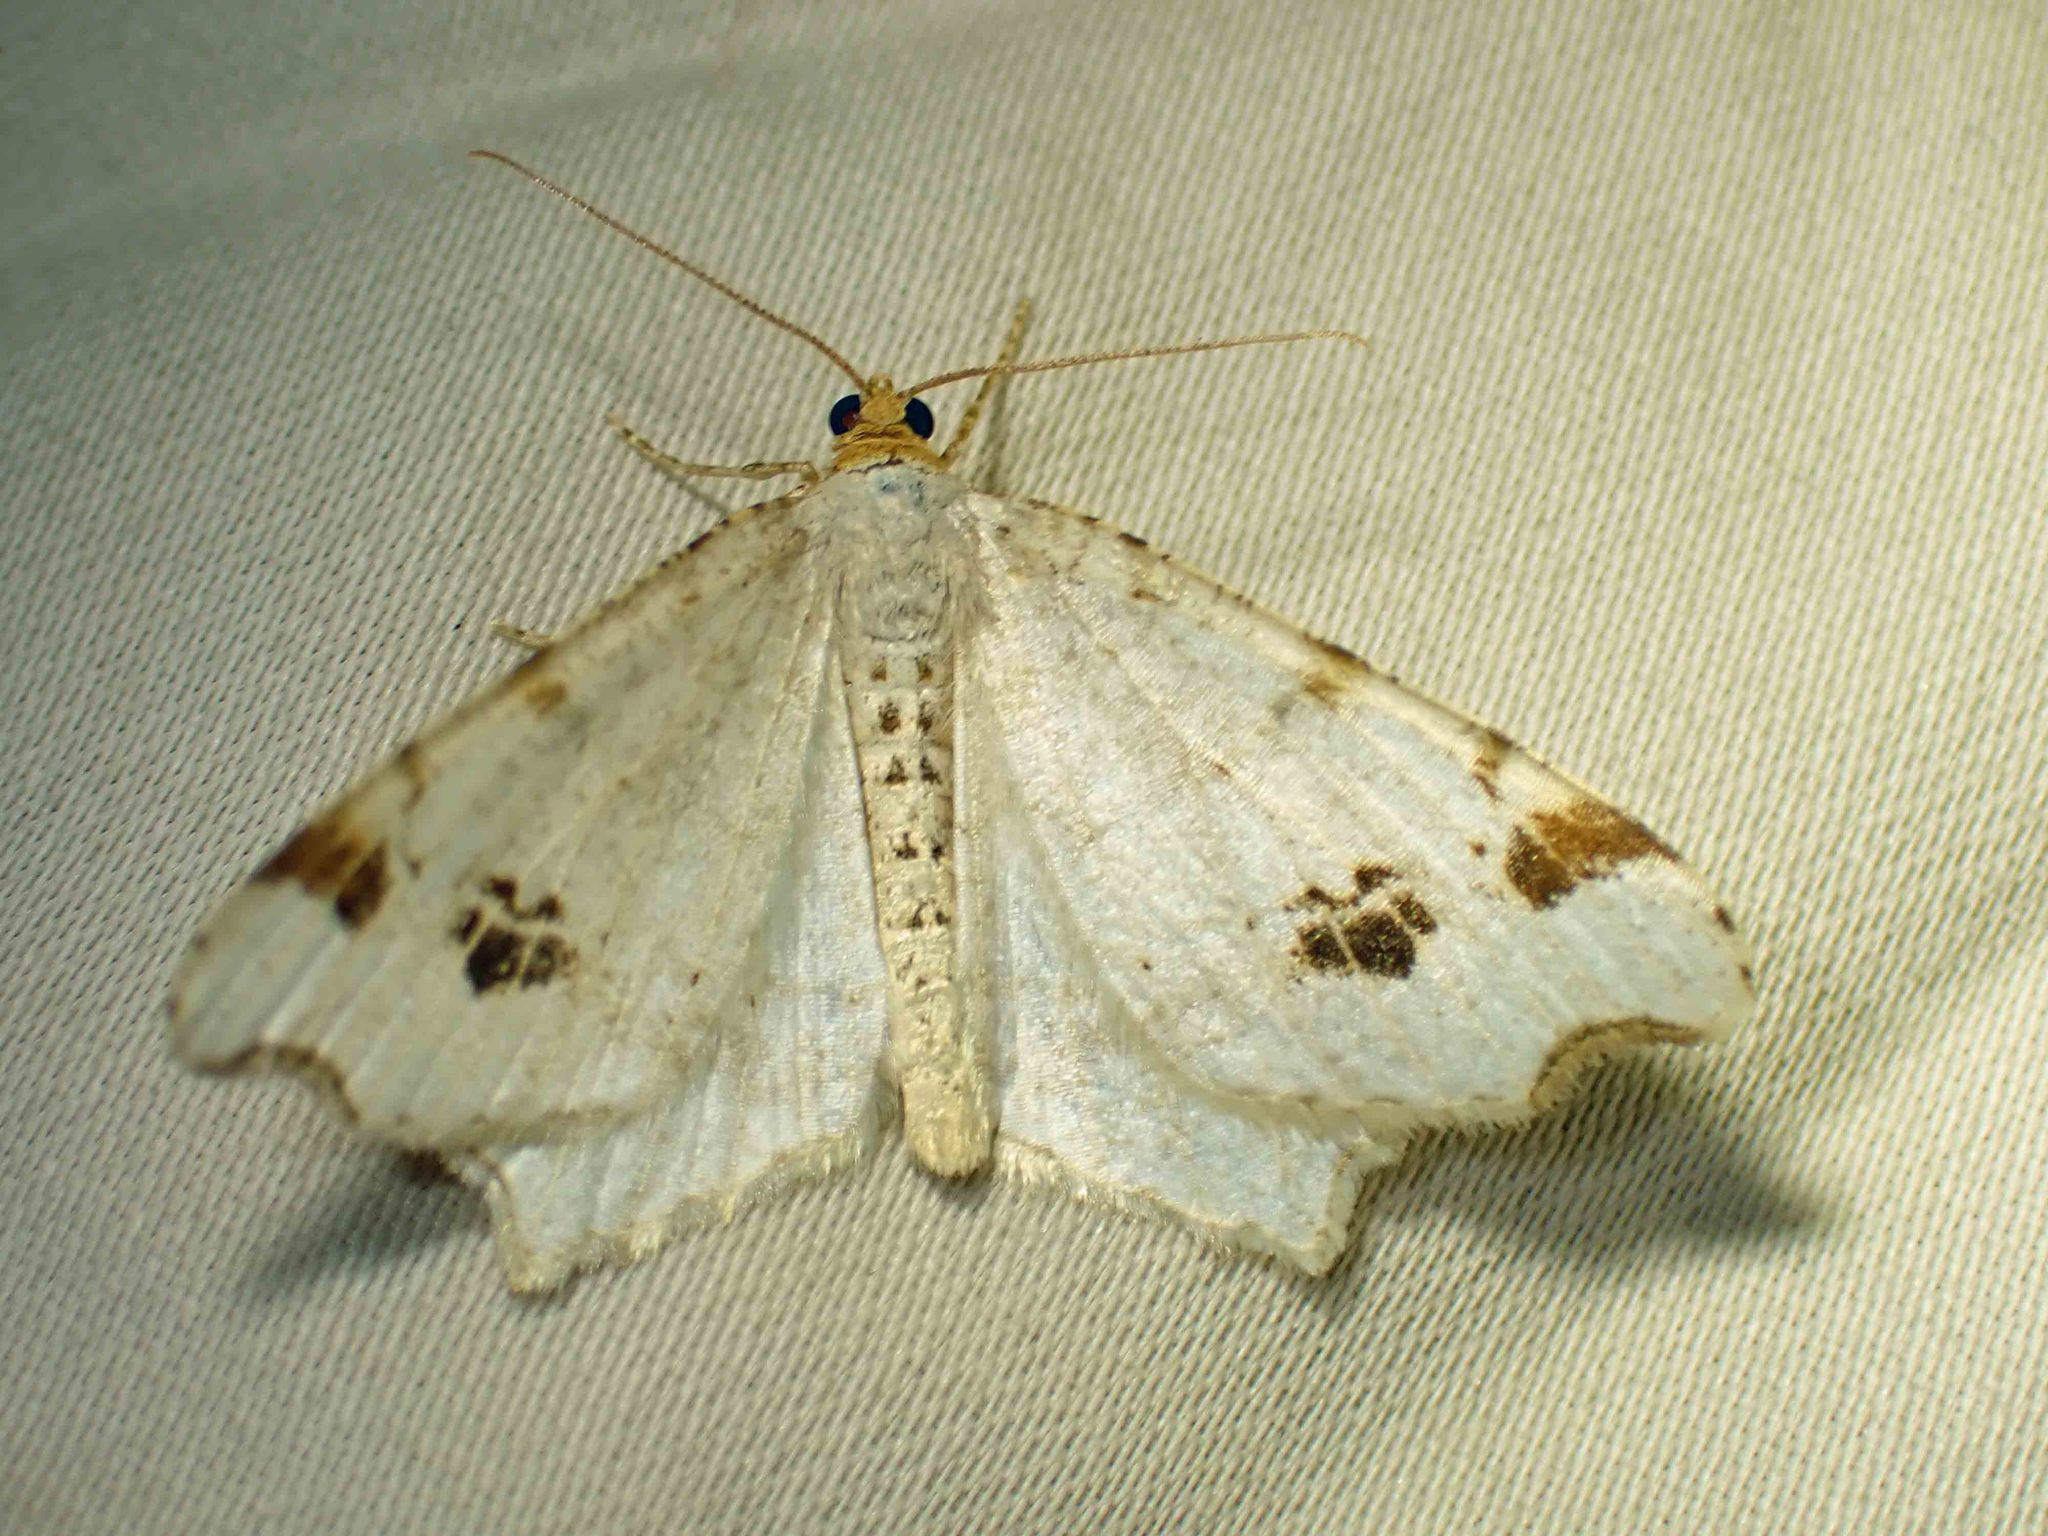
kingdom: Animalia
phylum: Arthropoda
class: Insecta
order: Lepidoptera
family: Geometridae
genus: Macaria
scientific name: Macaria ulsterata
